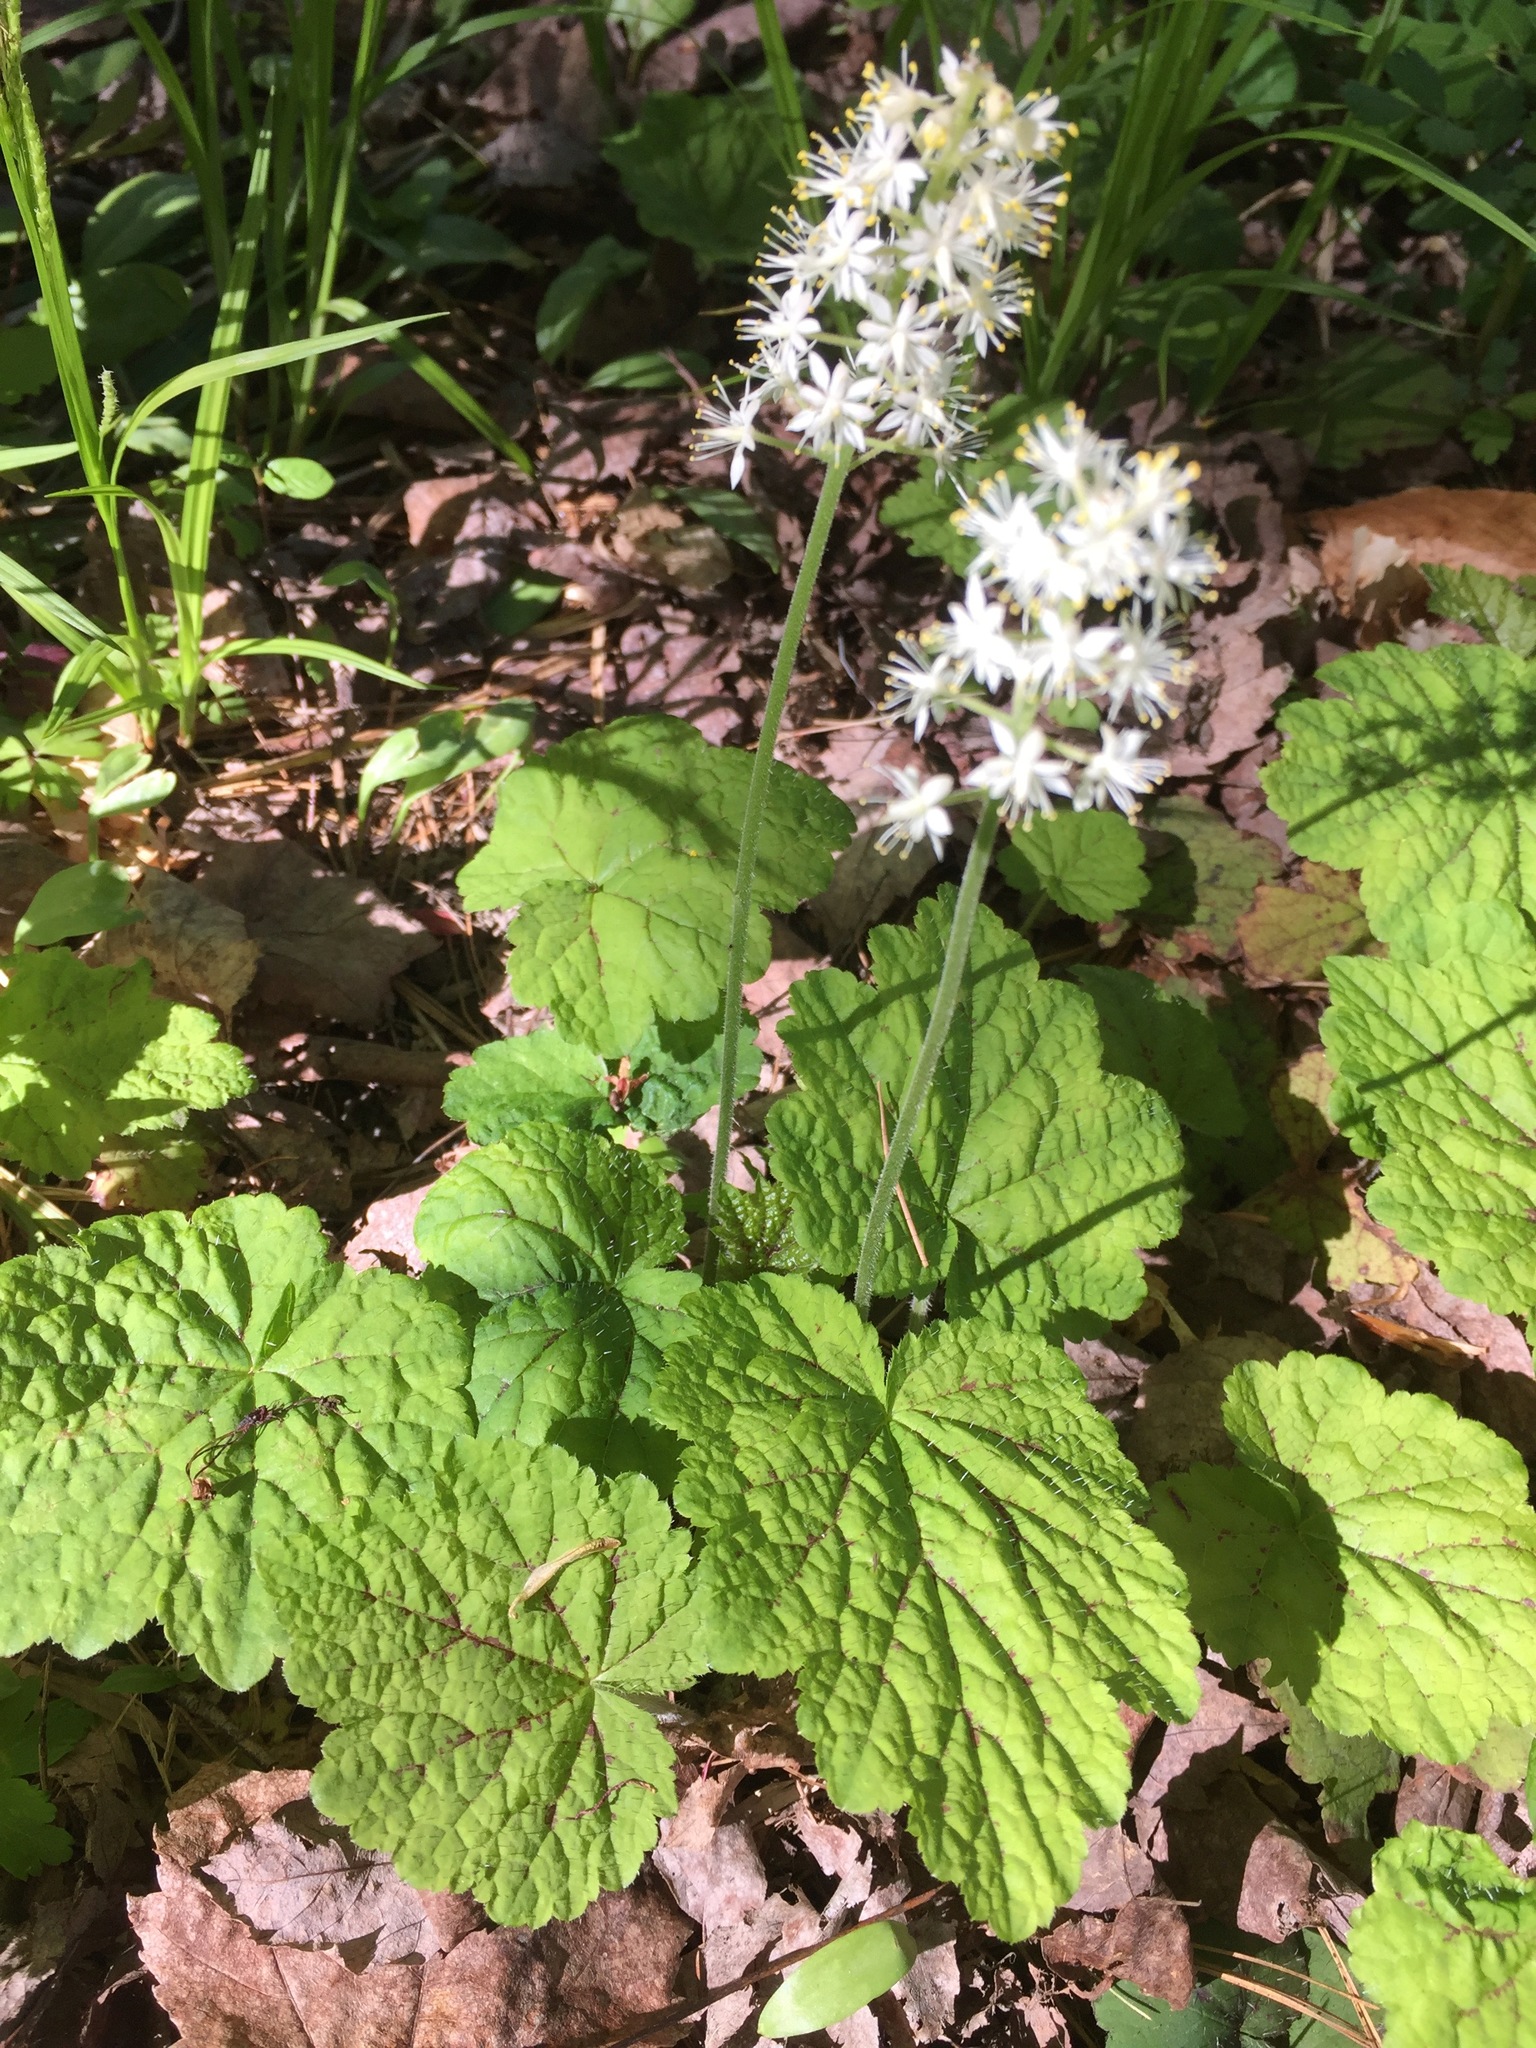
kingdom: Plantae
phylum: Tracheophyta
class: Magnoliopsida
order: Saxifragales
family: Saxifragaceae
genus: Tiarella
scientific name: Tiarella stolonifera
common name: Stoloniferous foamflower
